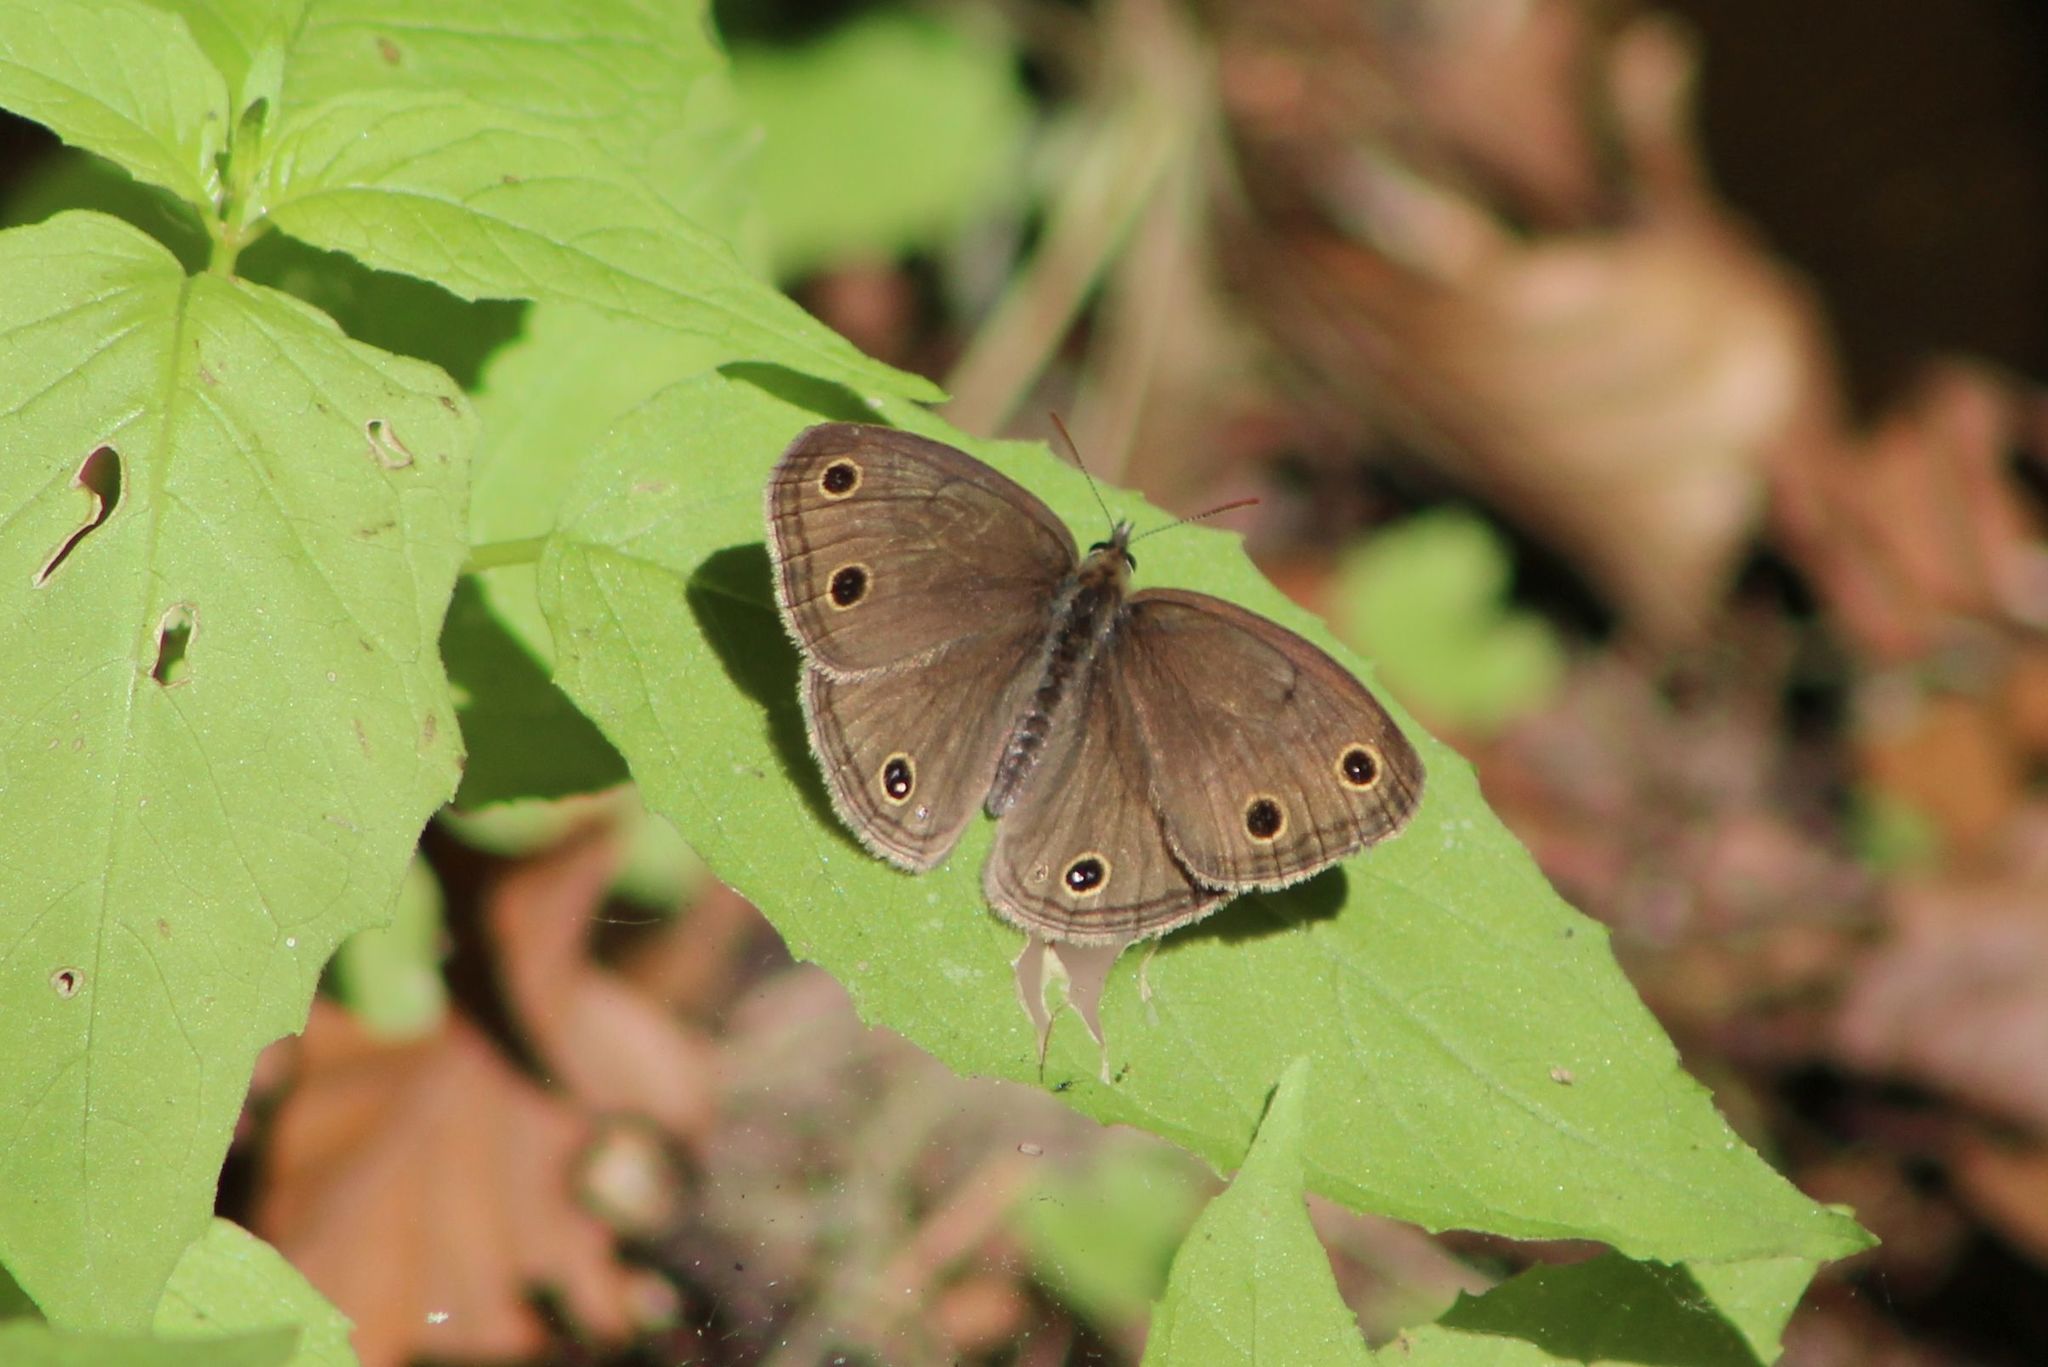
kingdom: Animalia
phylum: Arthropoda
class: Insecta
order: Lepidoptera
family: Nymphalidae
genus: Euptychia
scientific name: Euptychia cymela
